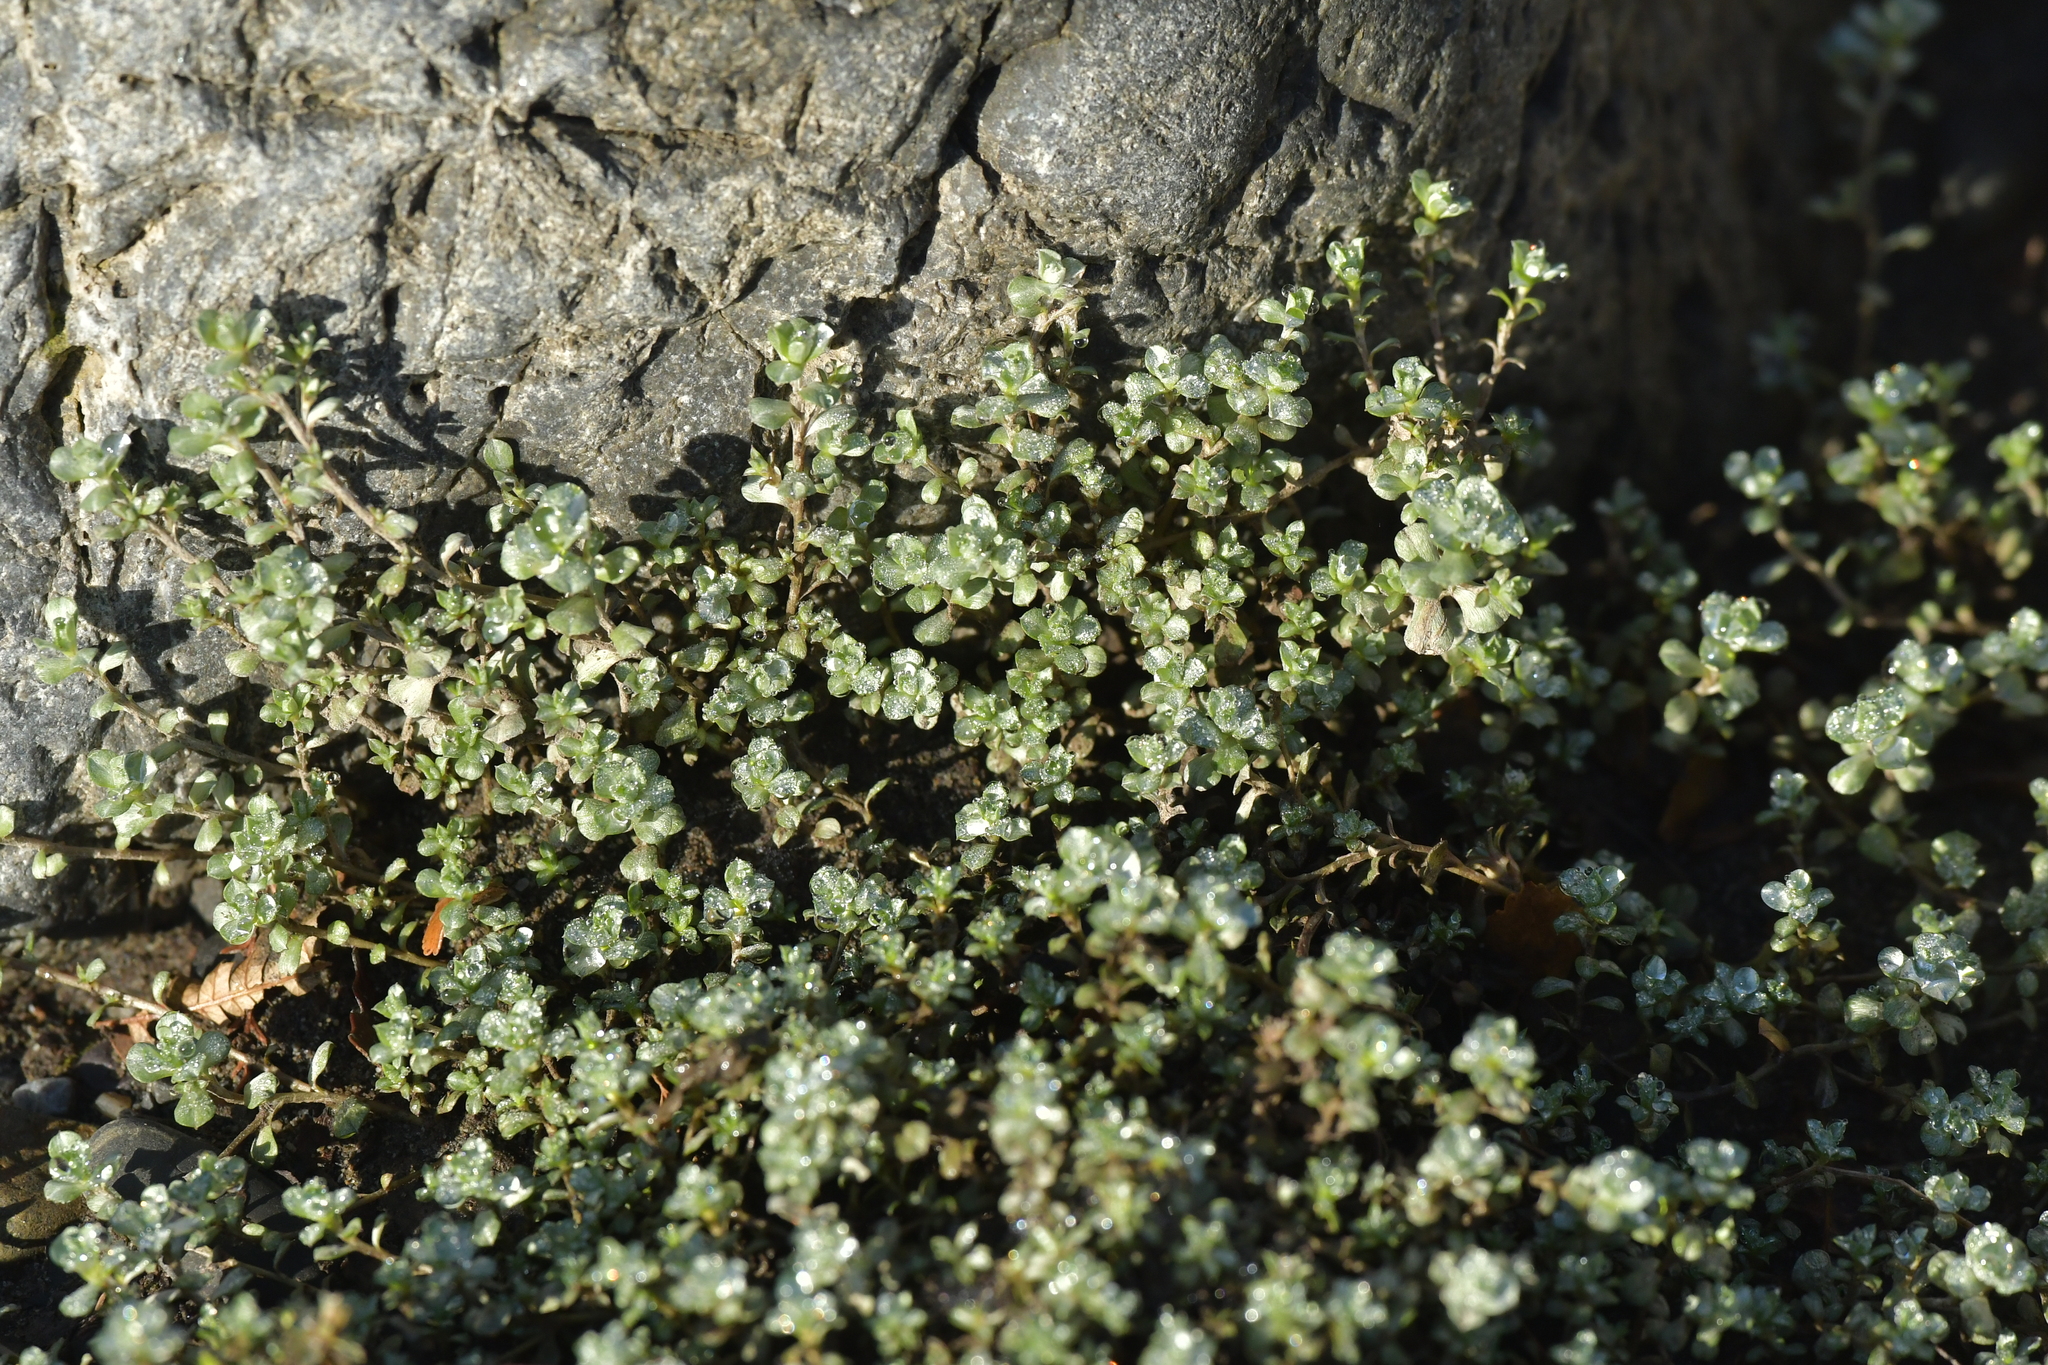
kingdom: Plantae
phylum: Tracheophyta
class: Magnoliopsida
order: Asterales
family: Asteraceae
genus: Raoulia
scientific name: Raoulia tenuicaulis
